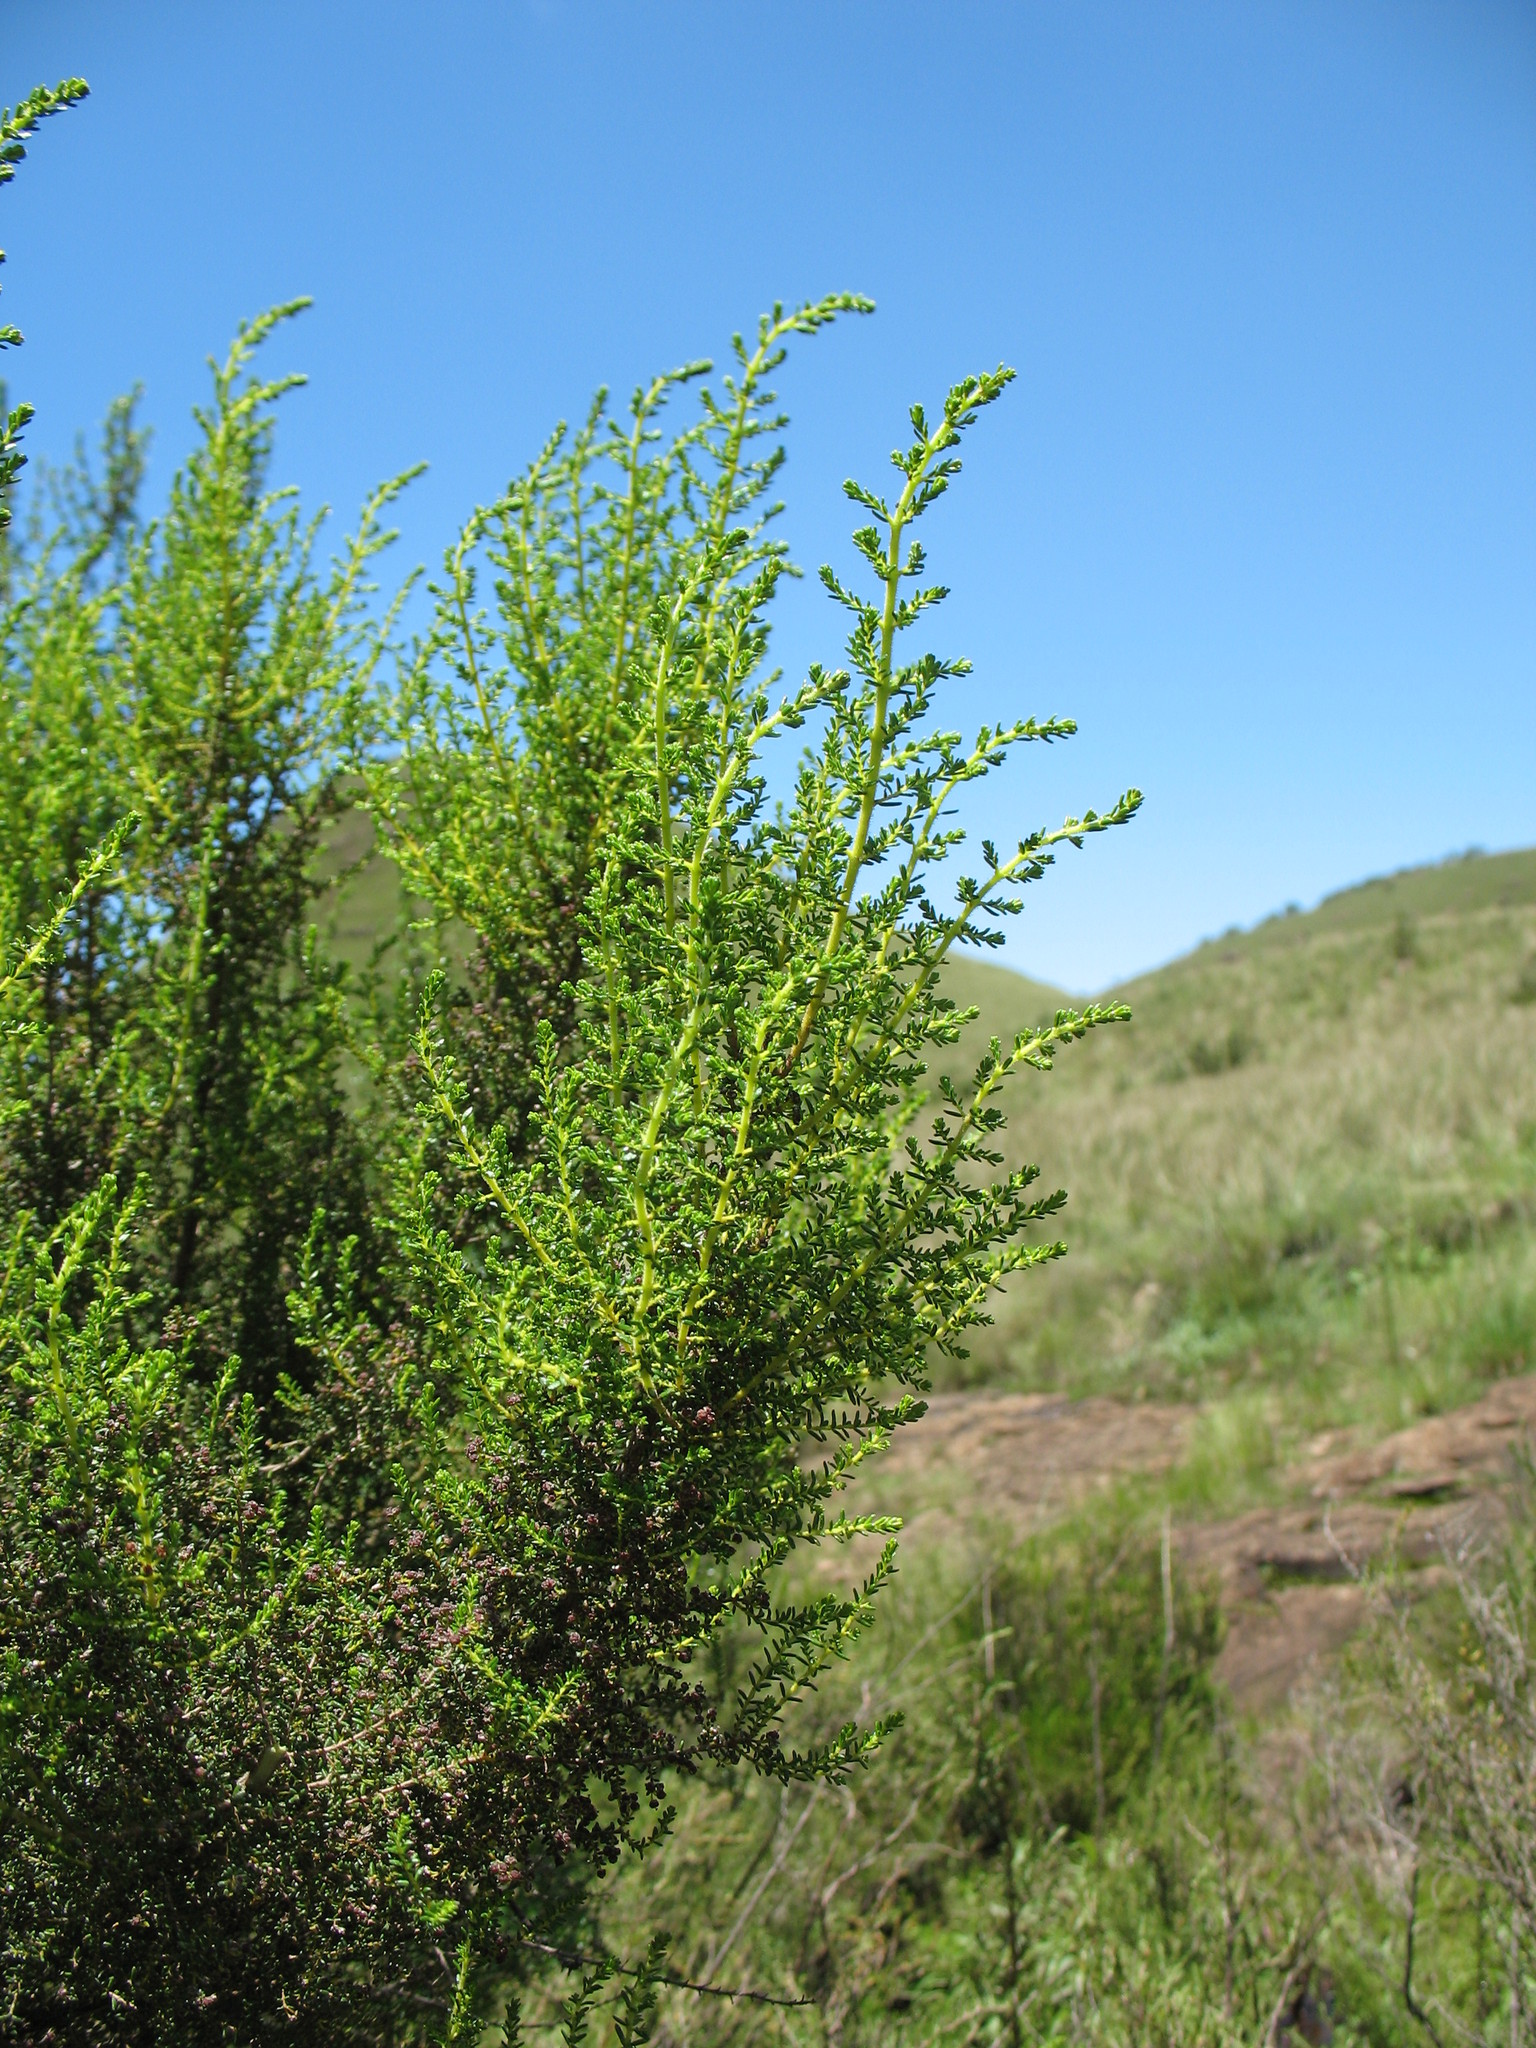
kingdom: Plantae
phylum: Tracheophyta
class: Magnoliopsida
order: Ericales
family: Ericaceae
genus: Erica
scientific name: Erica evansii
